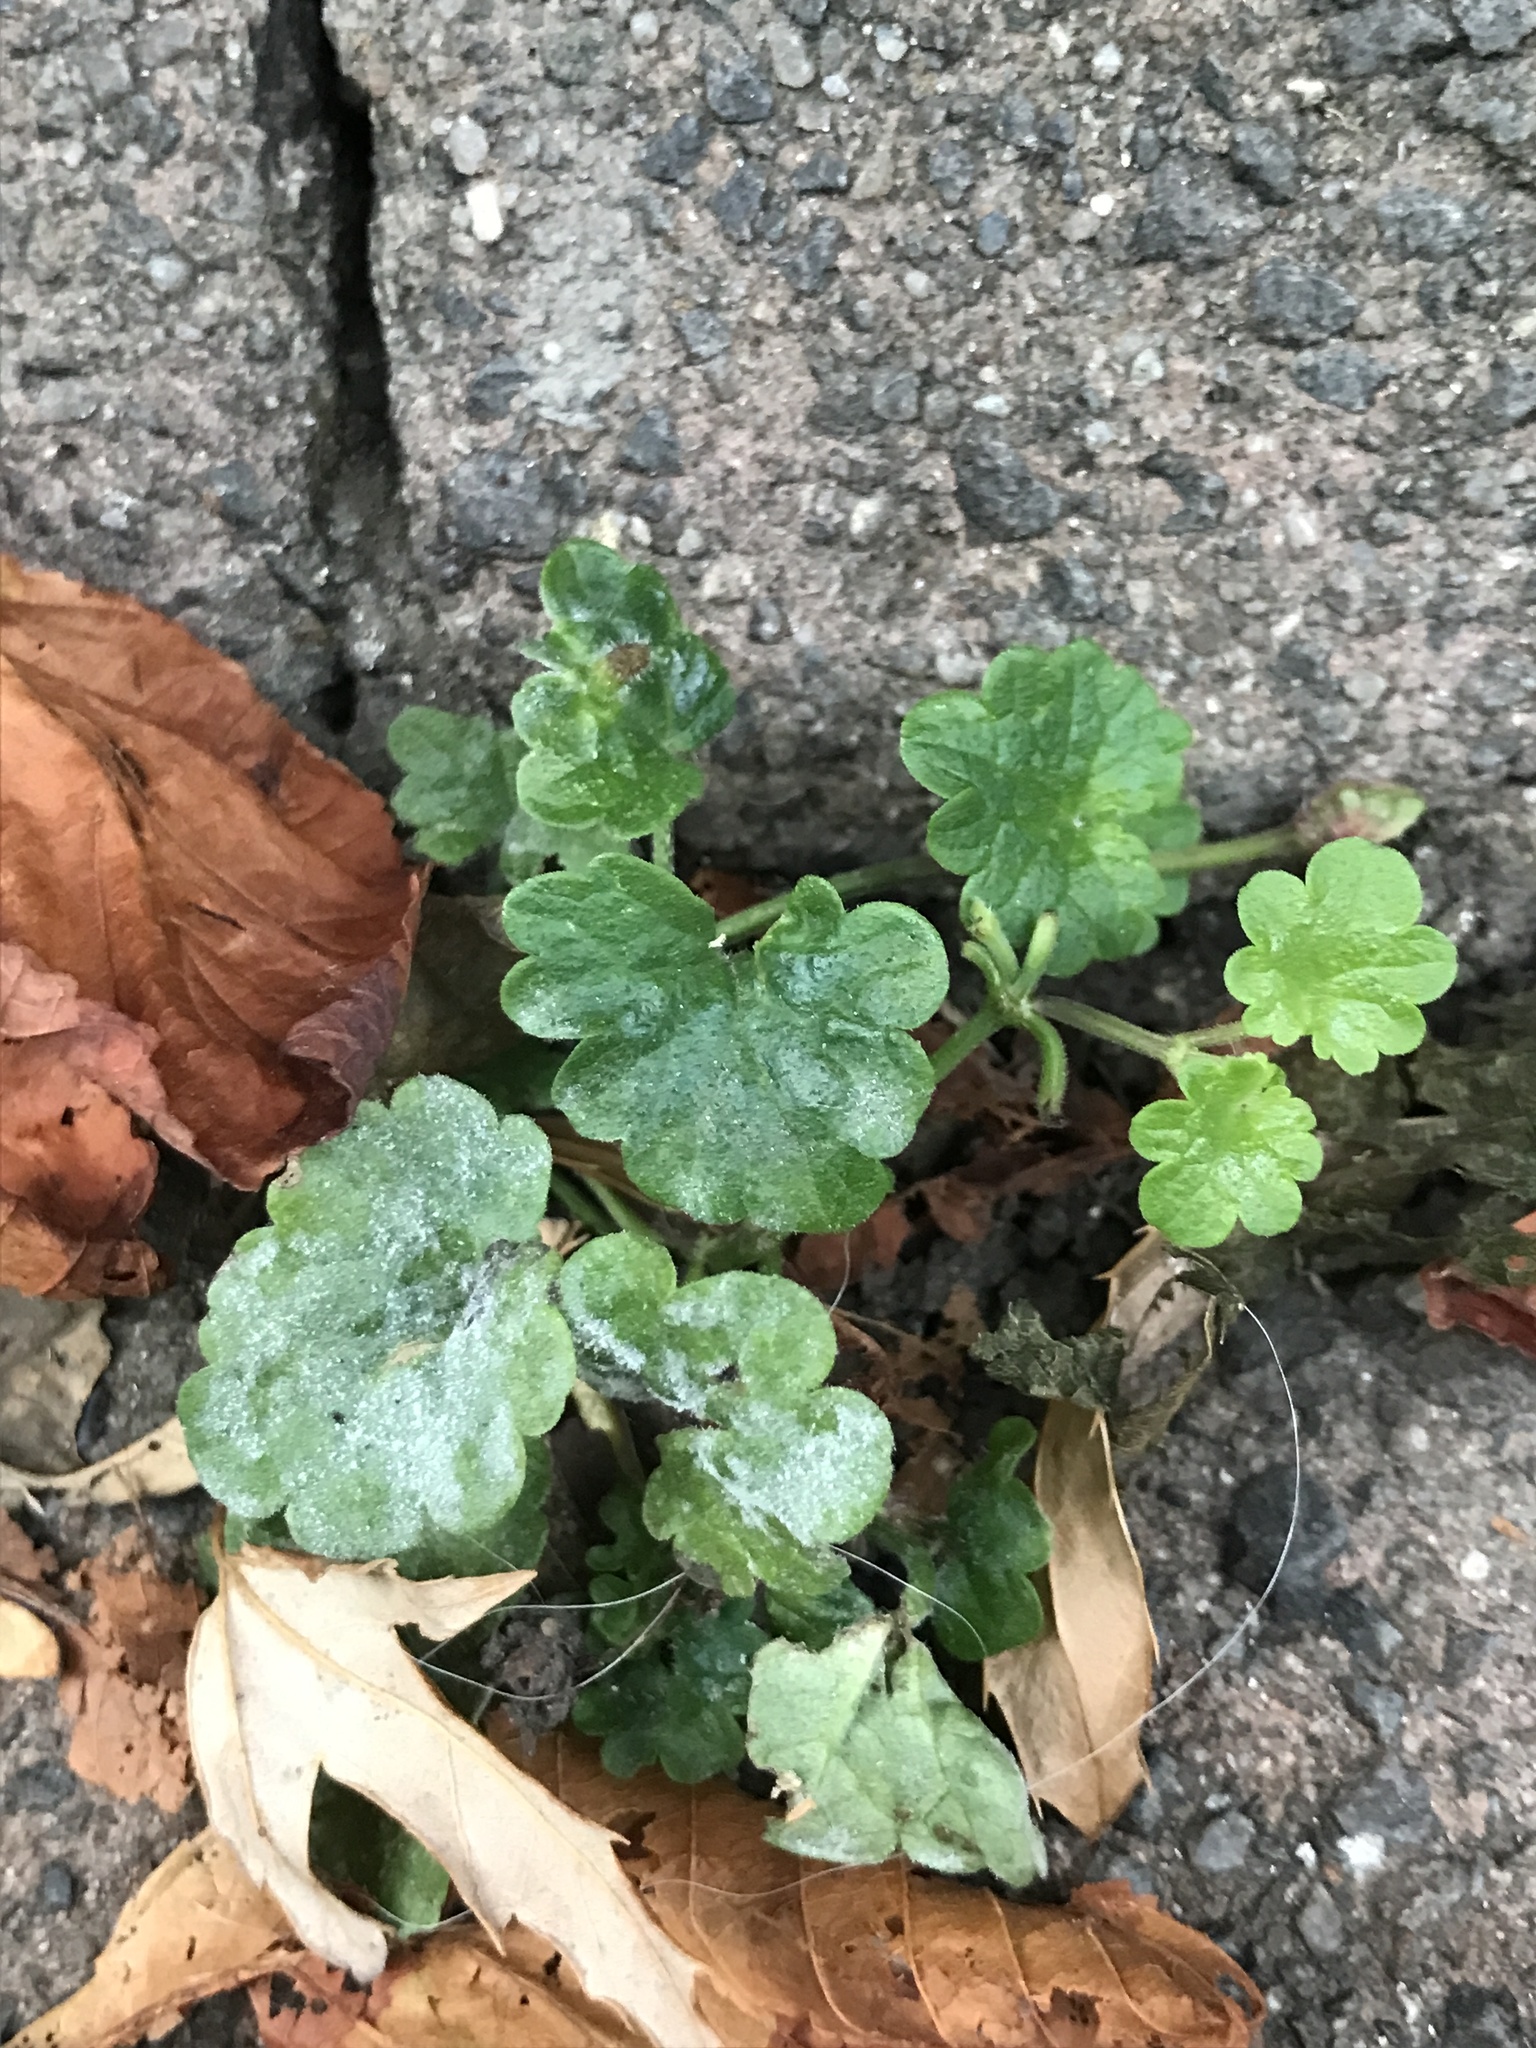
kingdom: Plantae
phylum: Tracheophyta
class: Magnoliopsida
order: Lamiales
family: Lamiaceae
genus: Glechoma
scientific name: Glechoma hederacea
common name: Ground ivy
